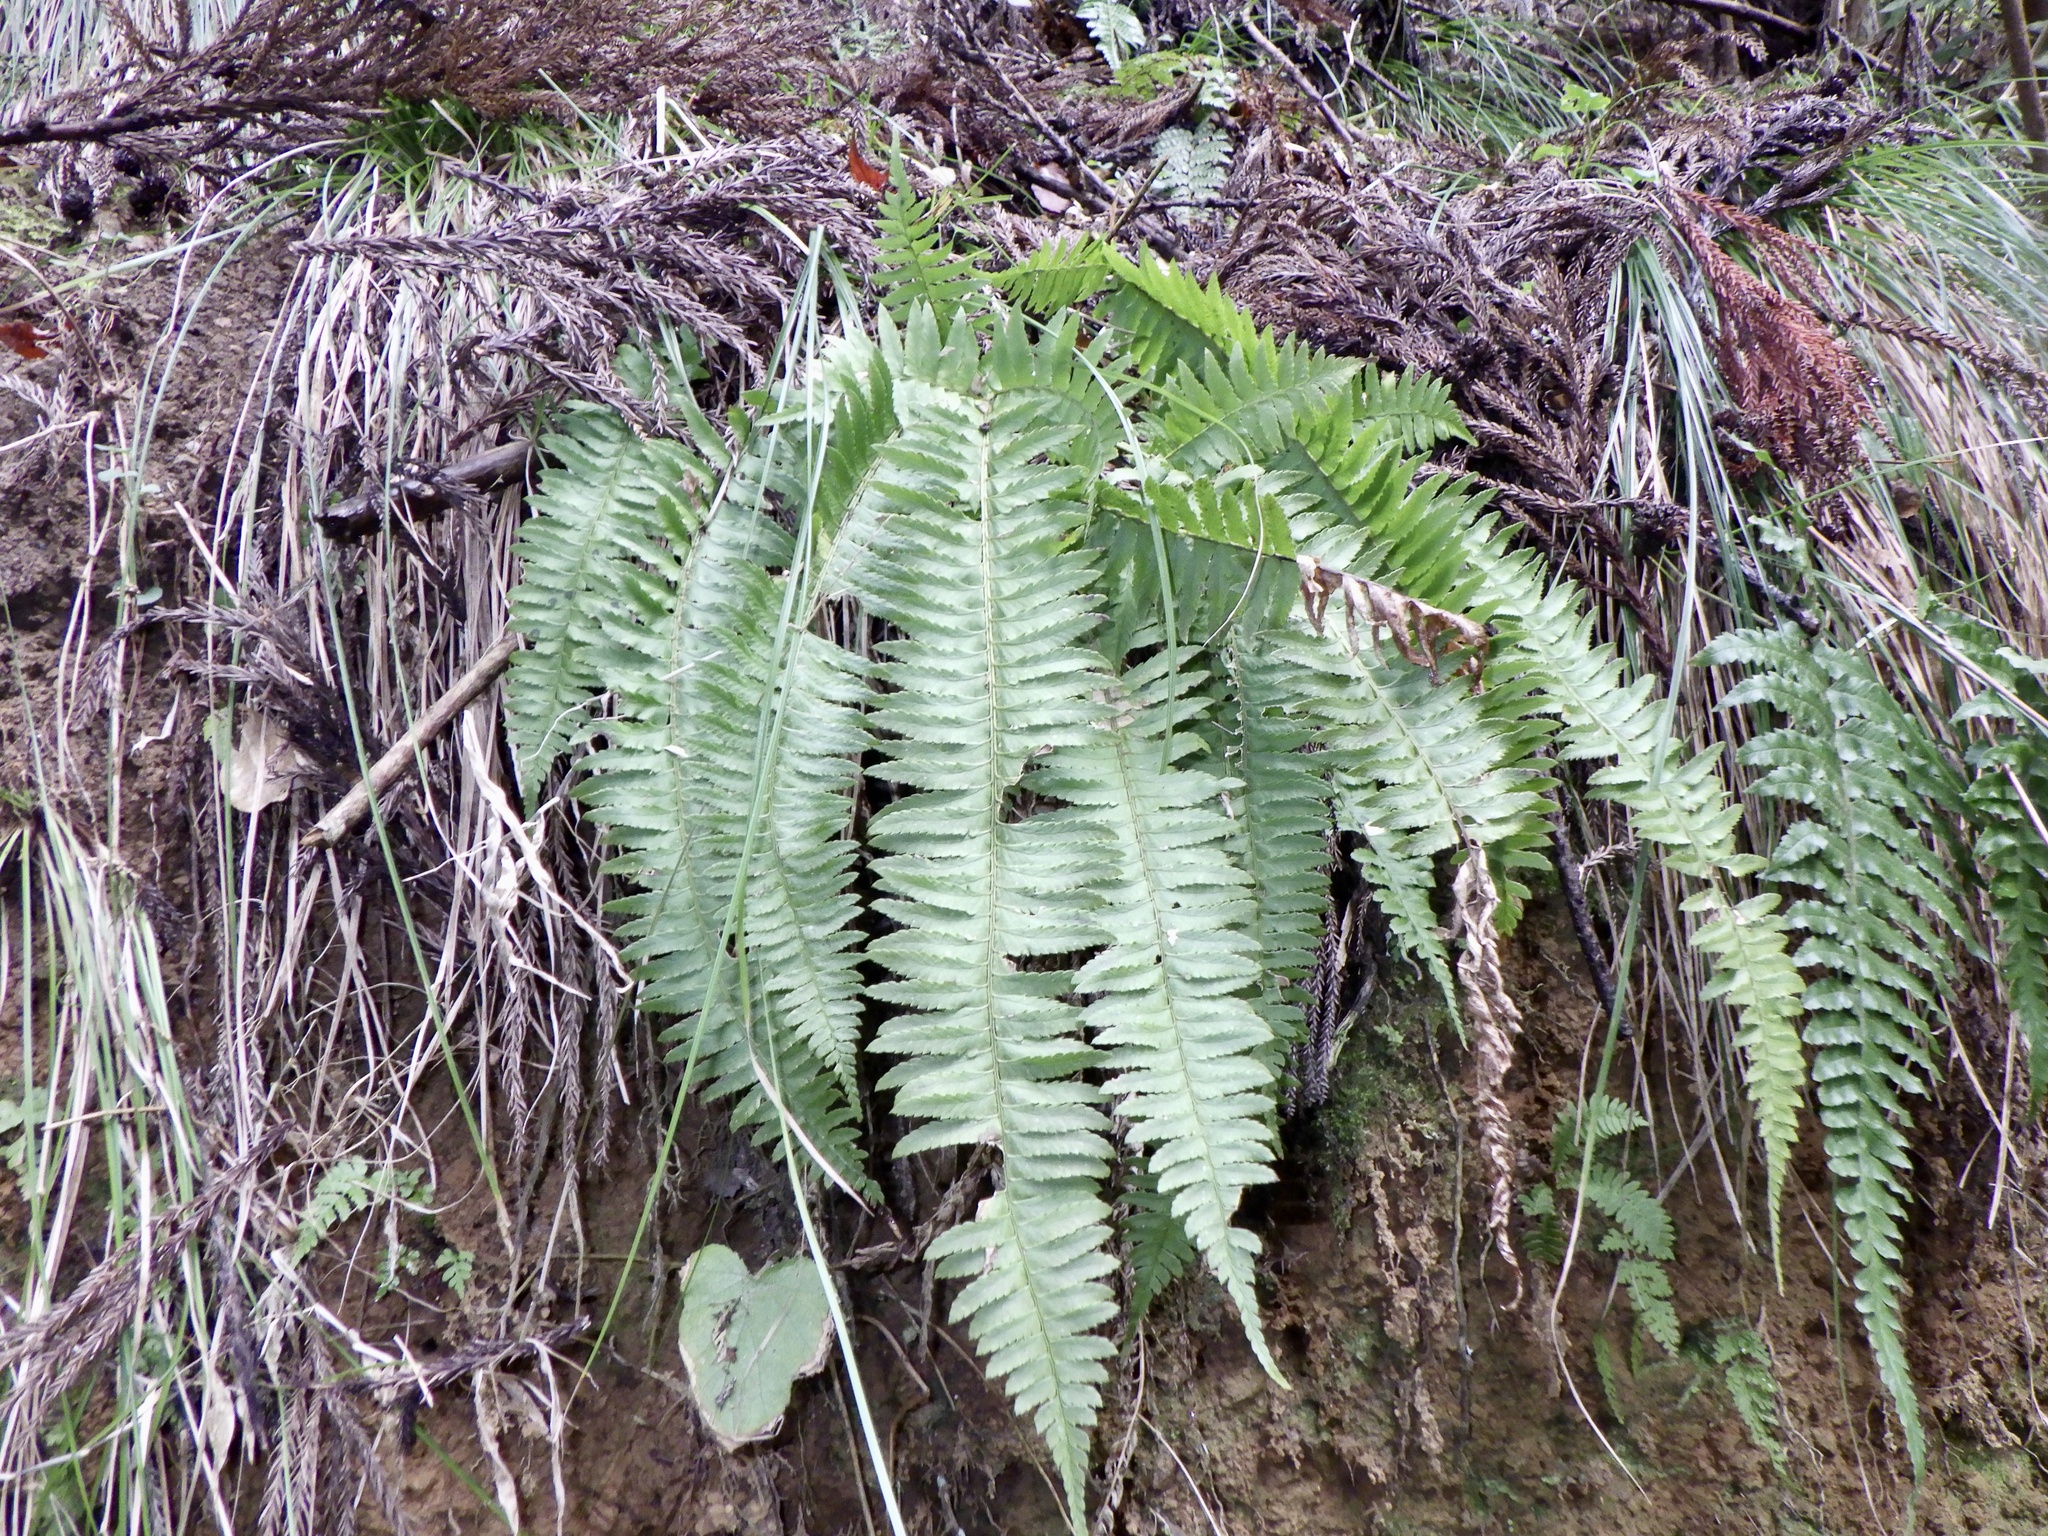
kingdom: Plantae
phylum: Tracheophyta
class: Polypodiopsida
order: Polypodiales
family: Dryopteridaceae
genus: Polystichum
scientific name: Polystichum tripteron
